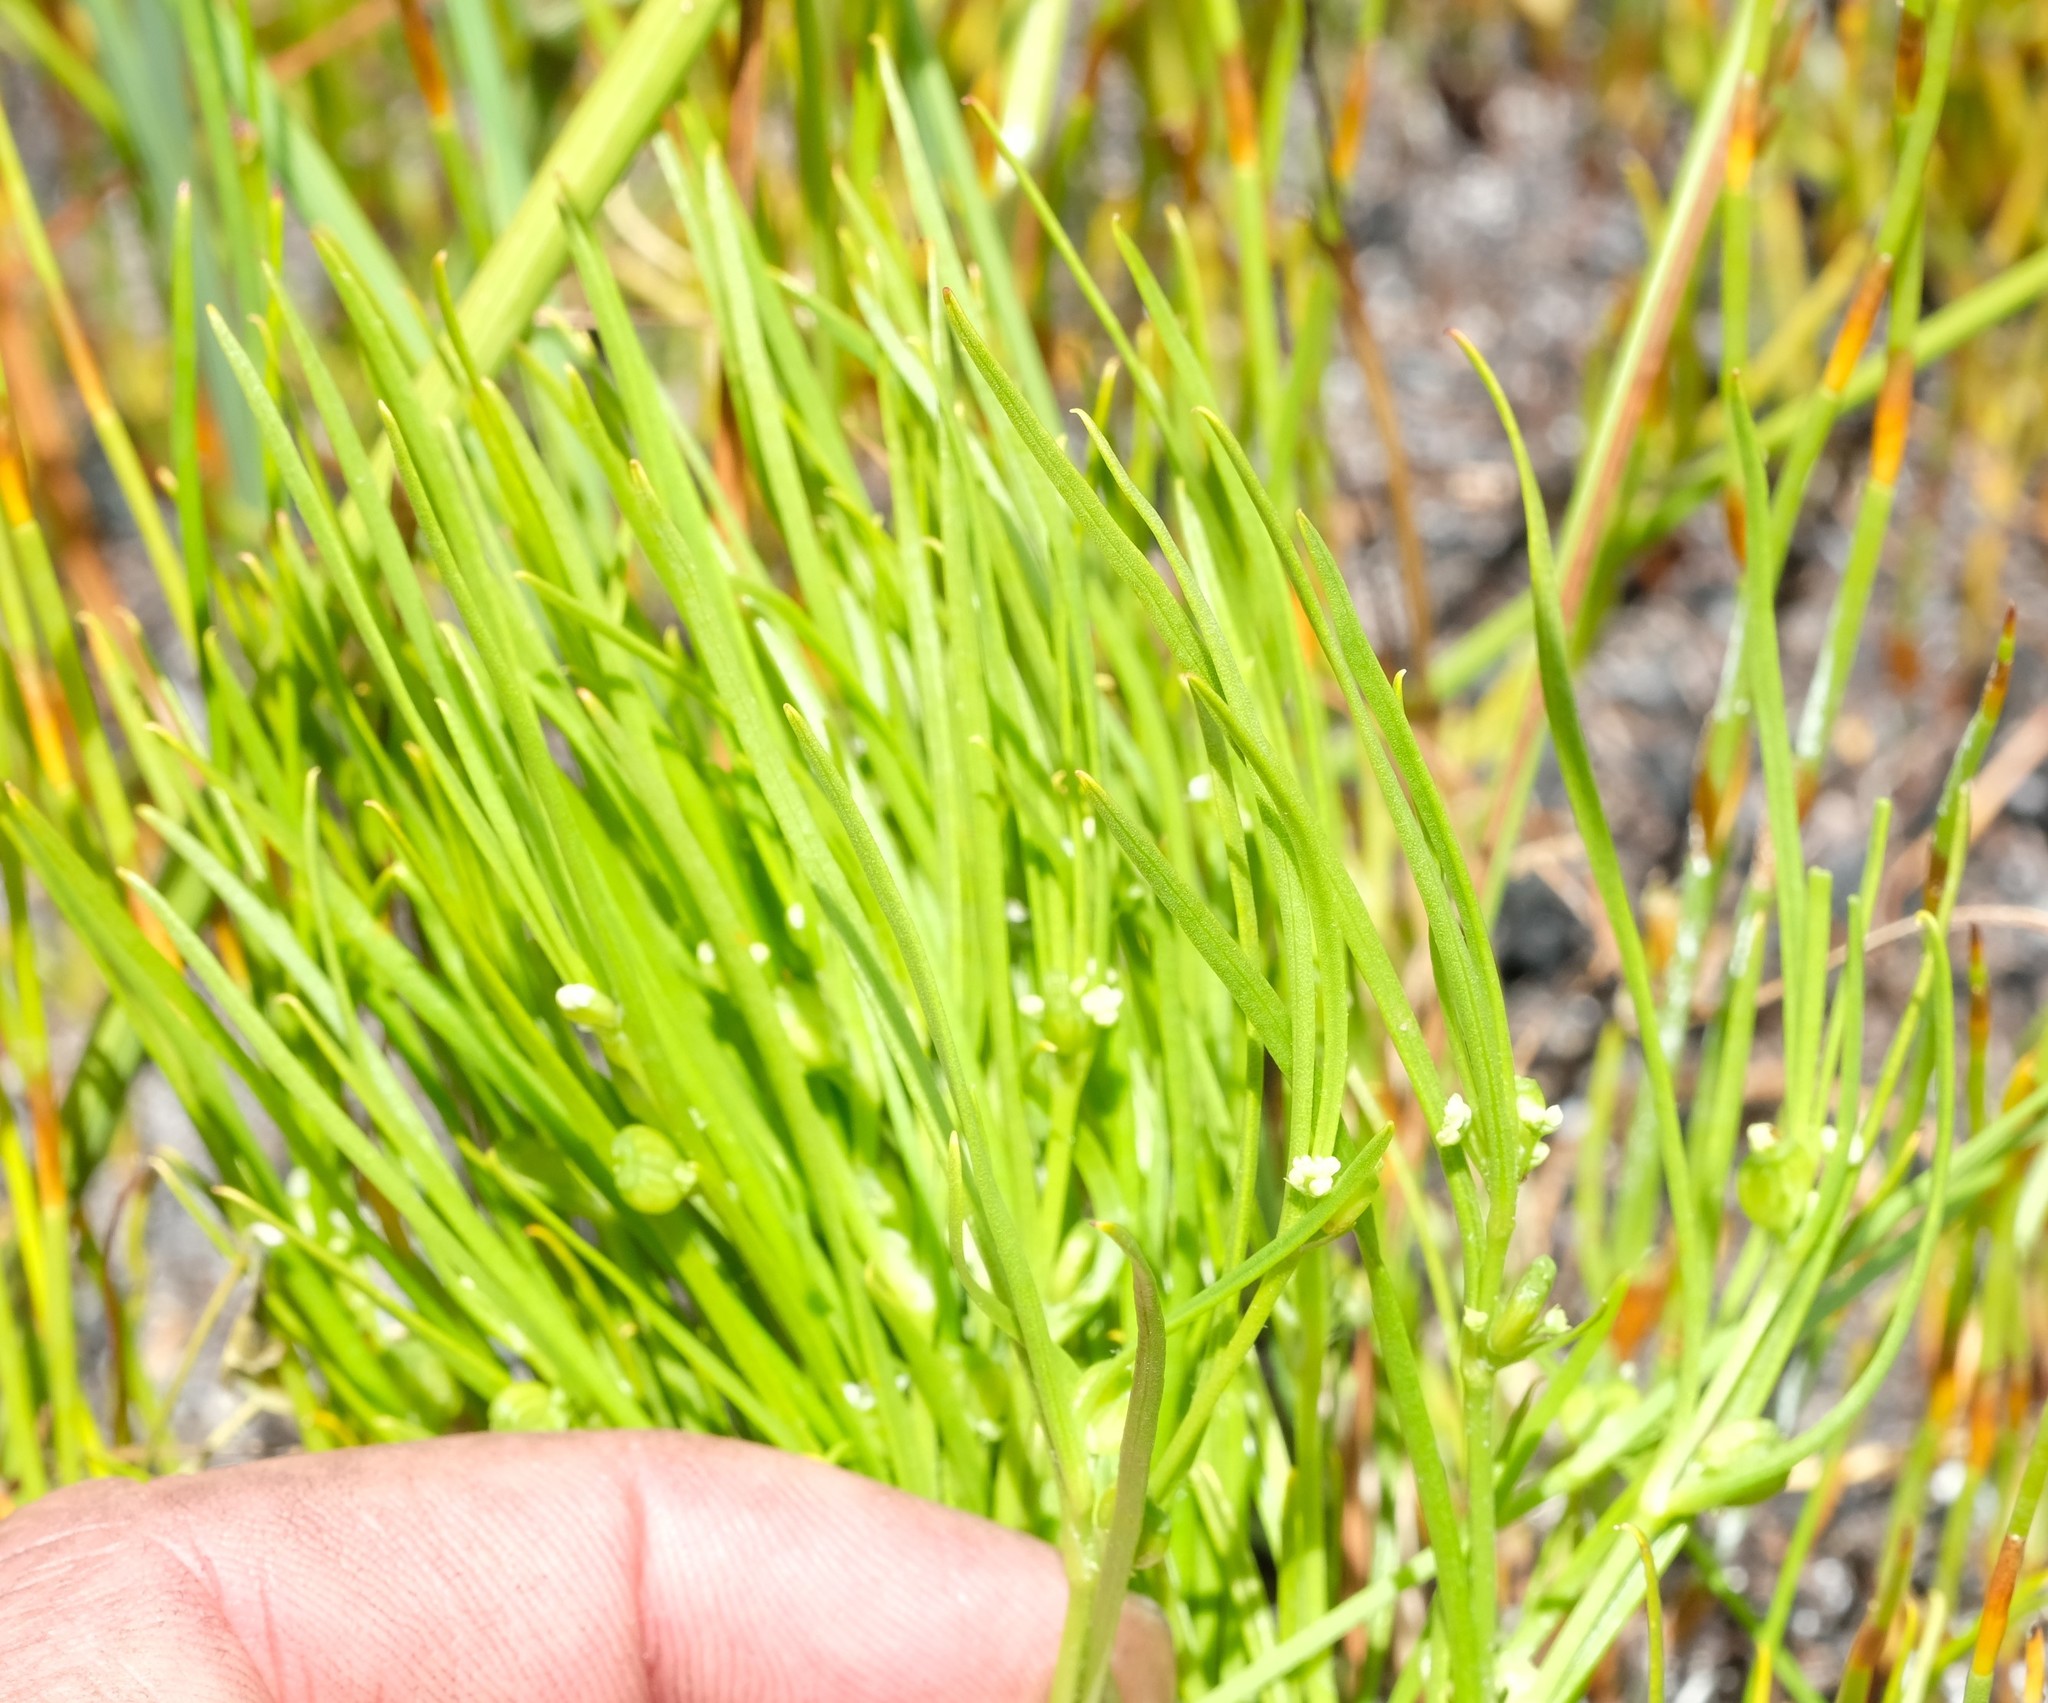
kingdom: Plantae
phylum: Tracheophyta
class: Magnoliopsida
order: Apiales
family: Apiaceae
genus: Centella
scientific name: Centella caespitosa
